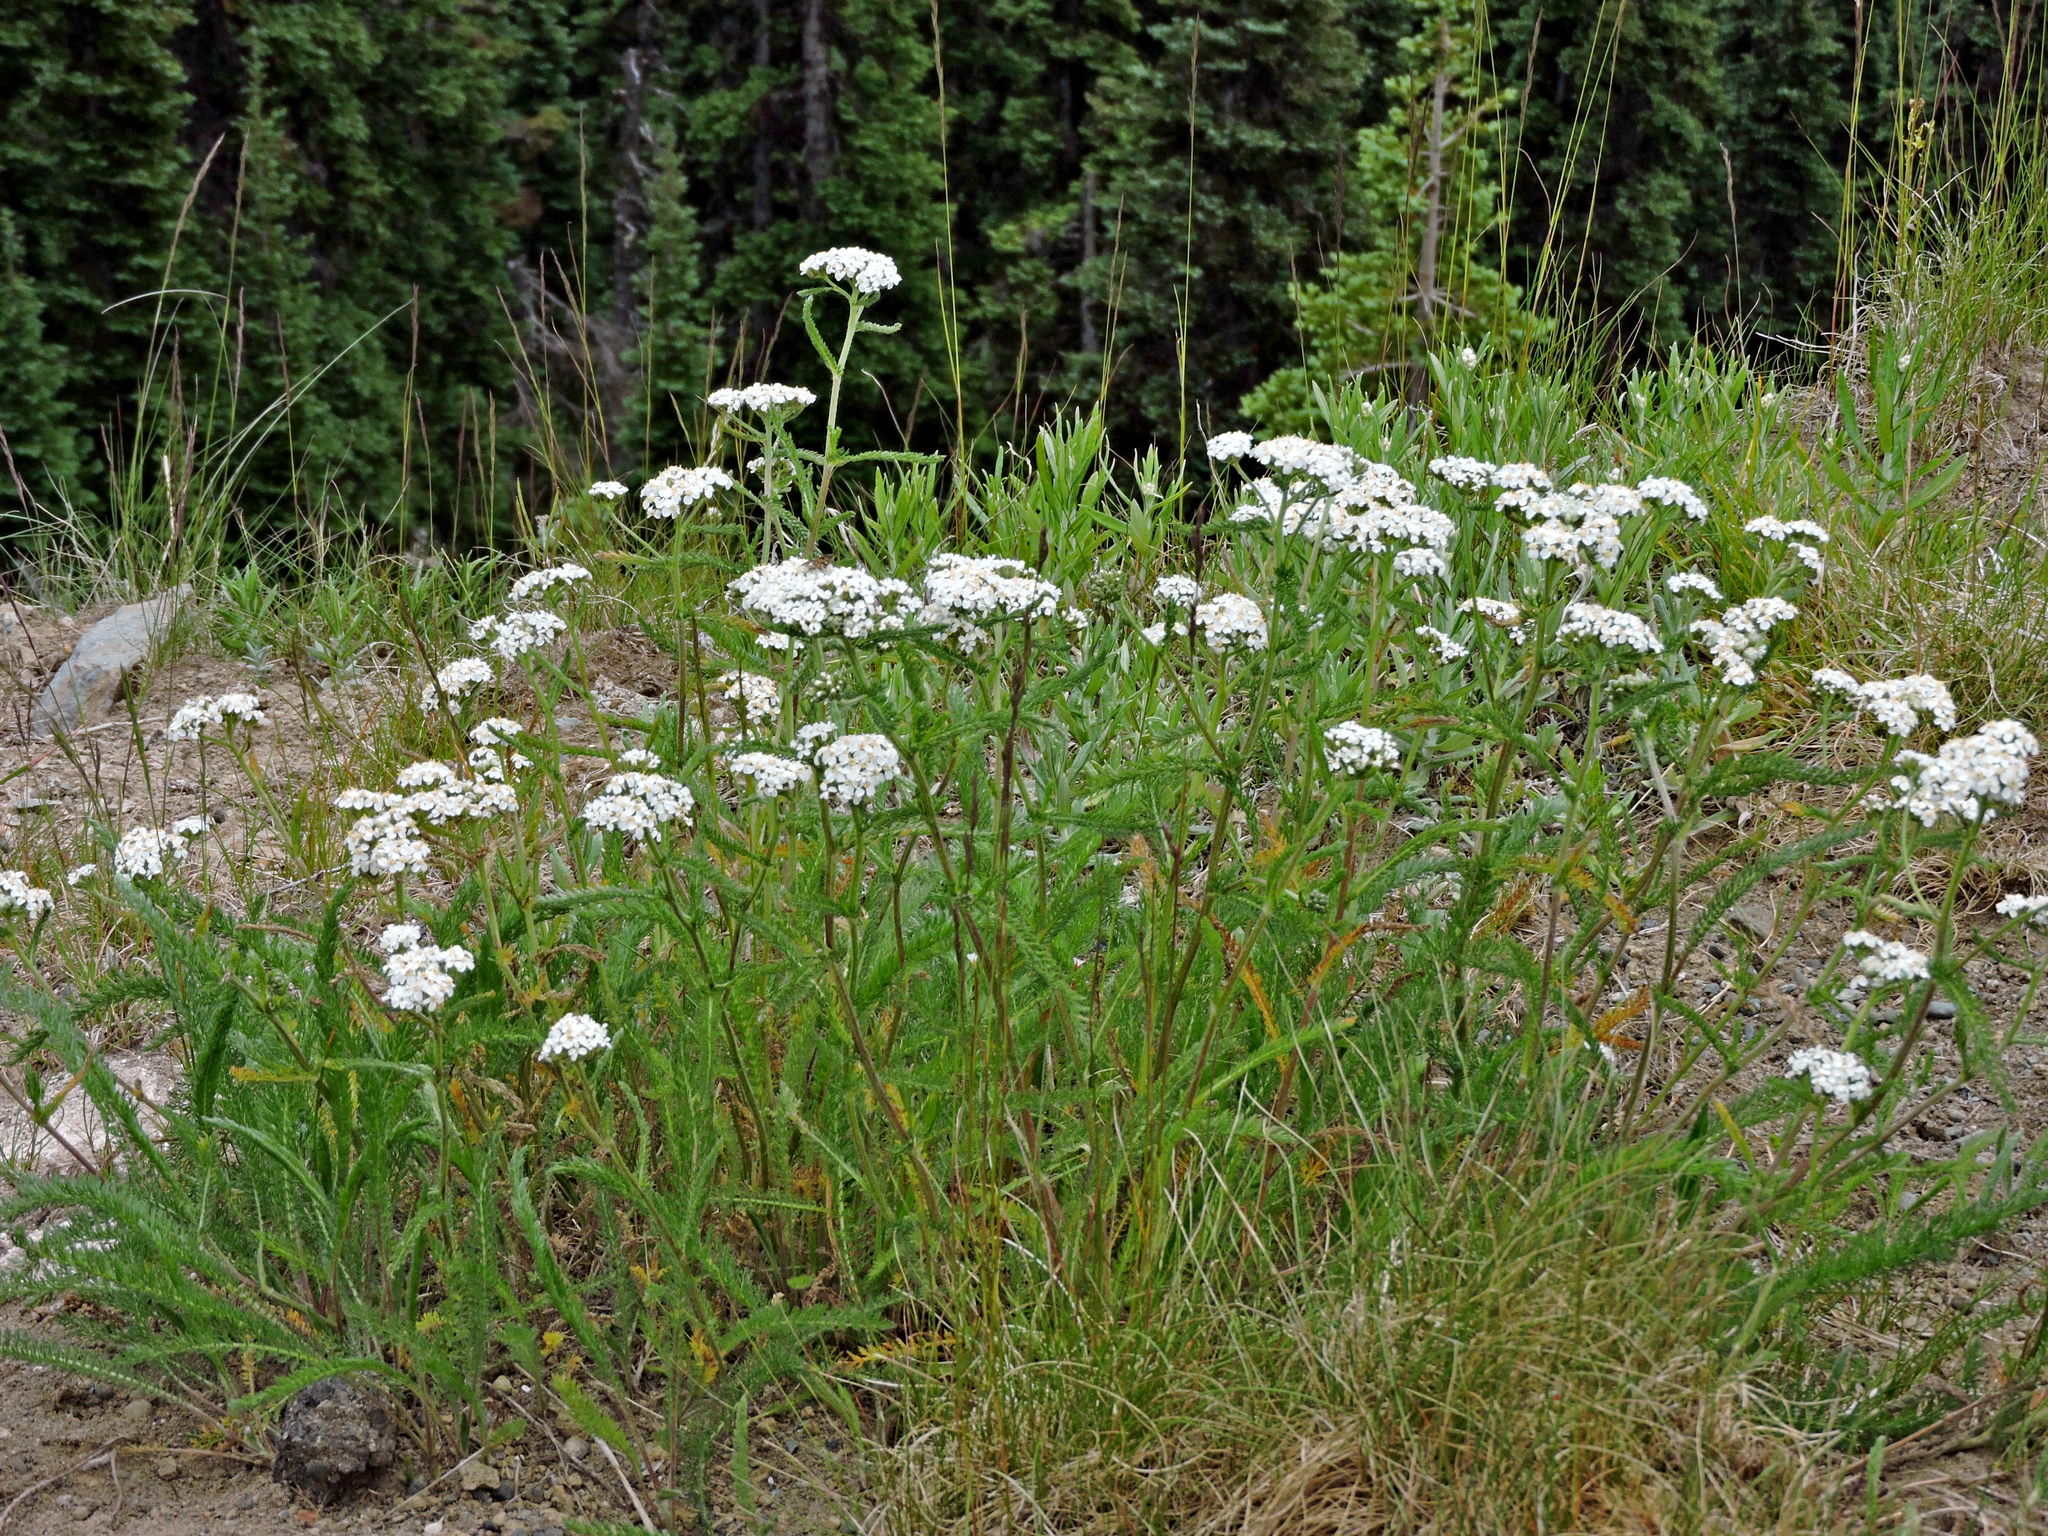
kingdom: Plantae
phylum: Tracheophyta
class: Magnoliopsida
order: Asterales
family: Asteraceae
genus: Achillea
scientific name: Achillea millefolium
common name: Yarrow
